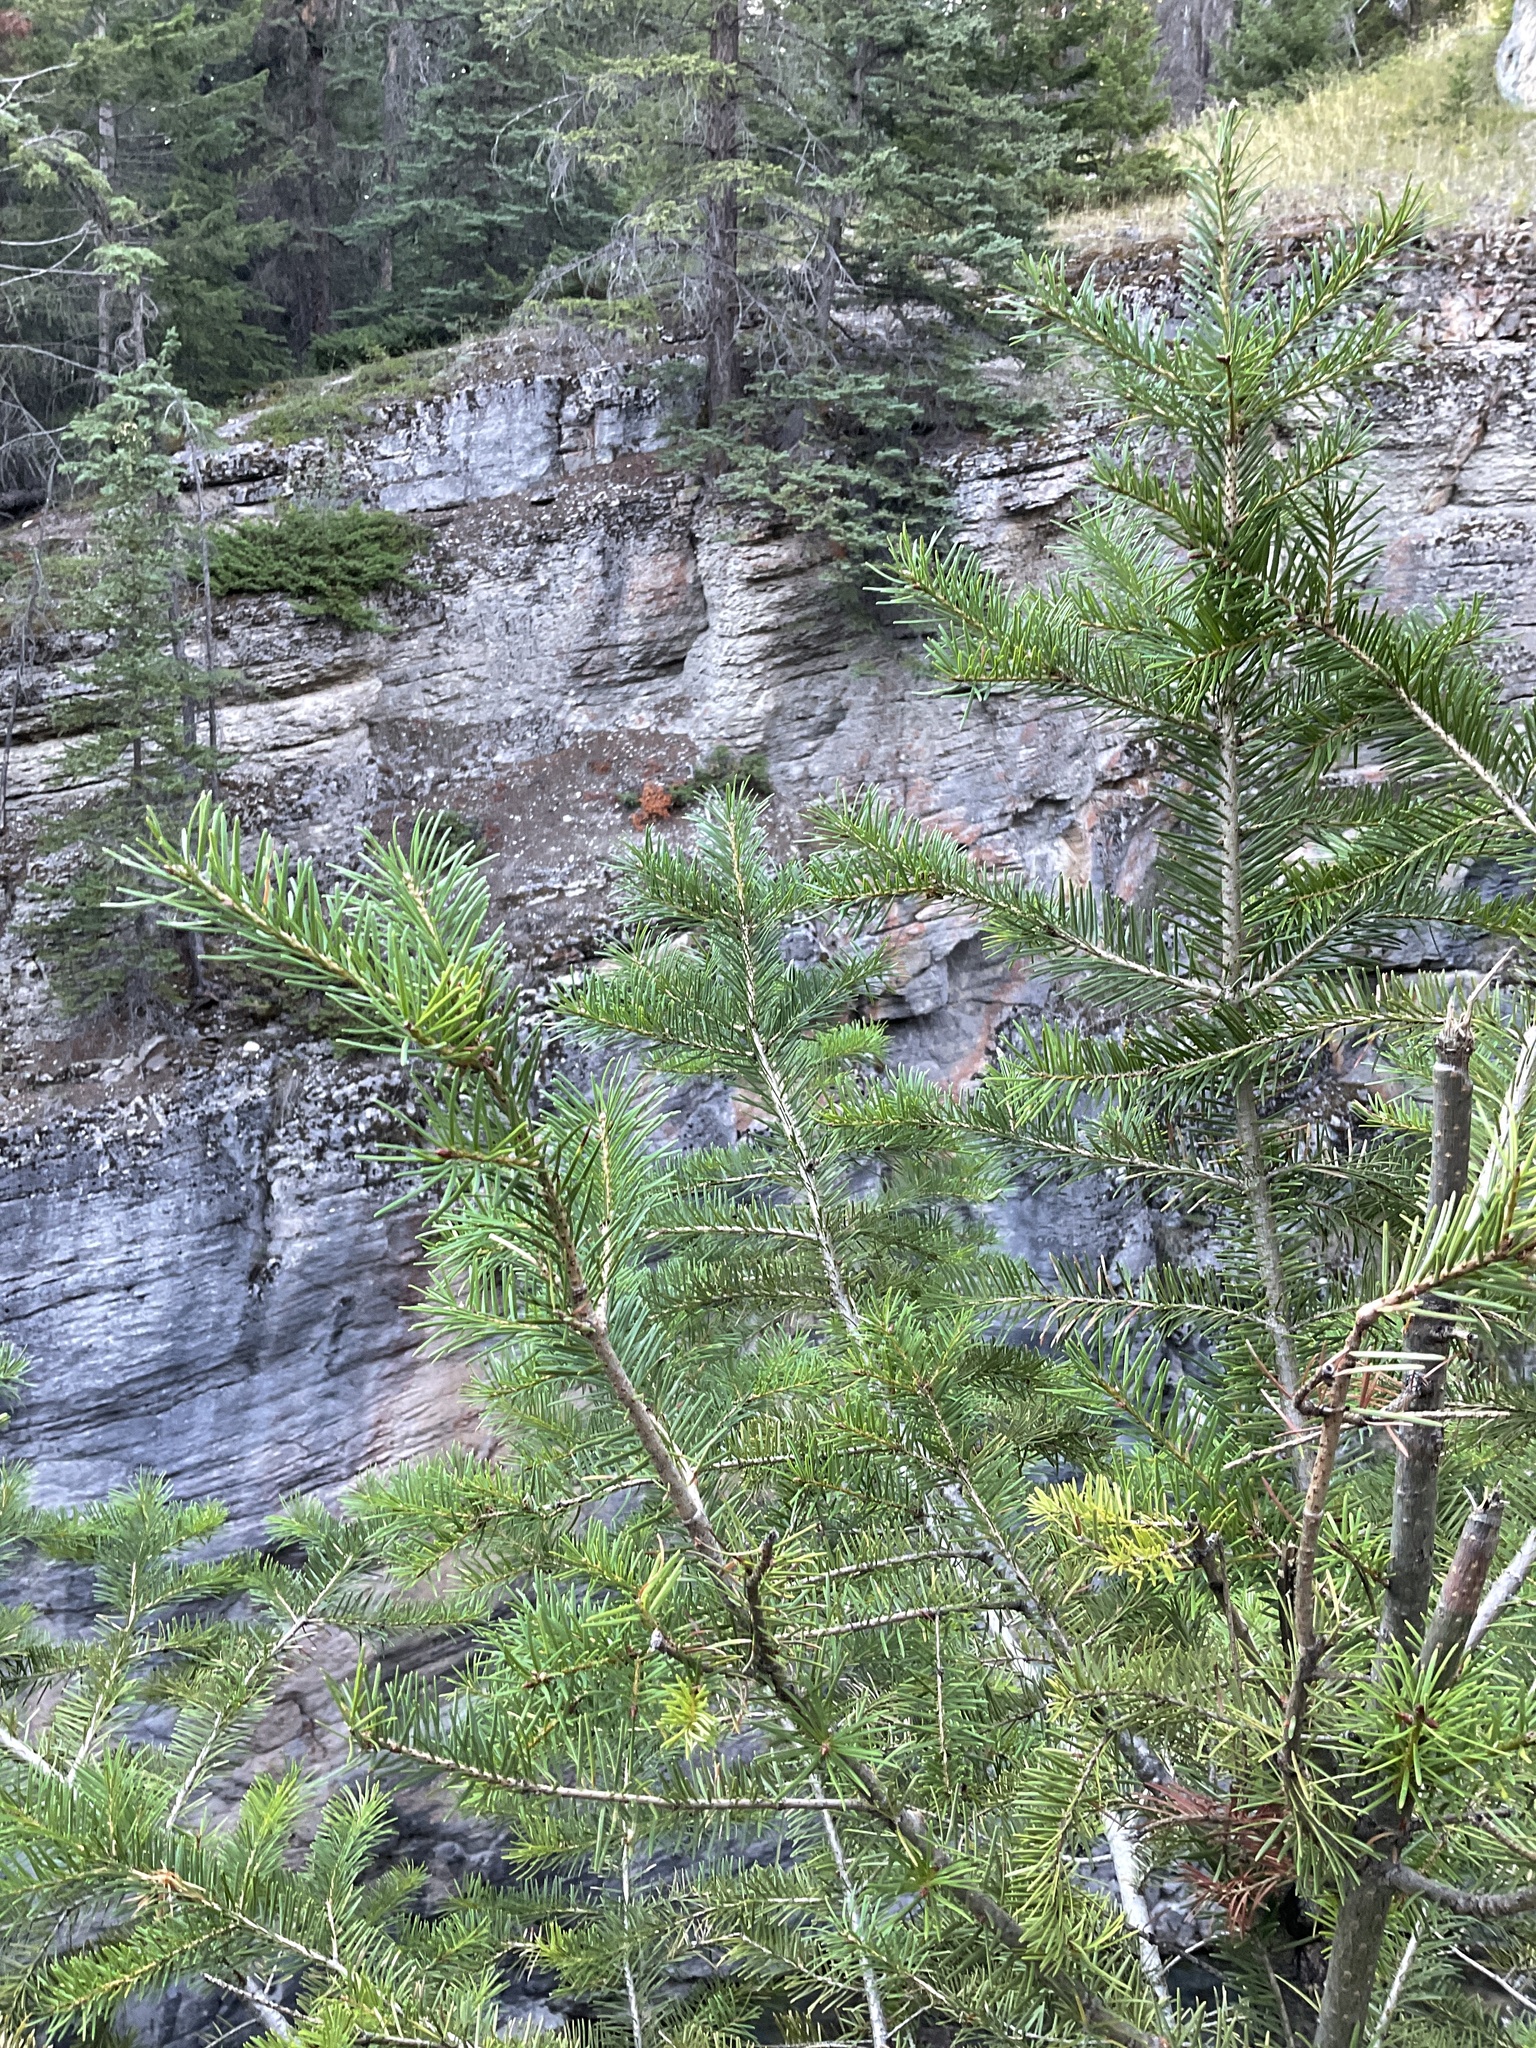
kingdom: Plantae
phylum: Tracheophyta
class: Pinopsida
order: Pinales
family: Pinaceae
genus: Pseudotsuga
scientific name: Pseudotsuga menziesii
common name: Douglas fir
